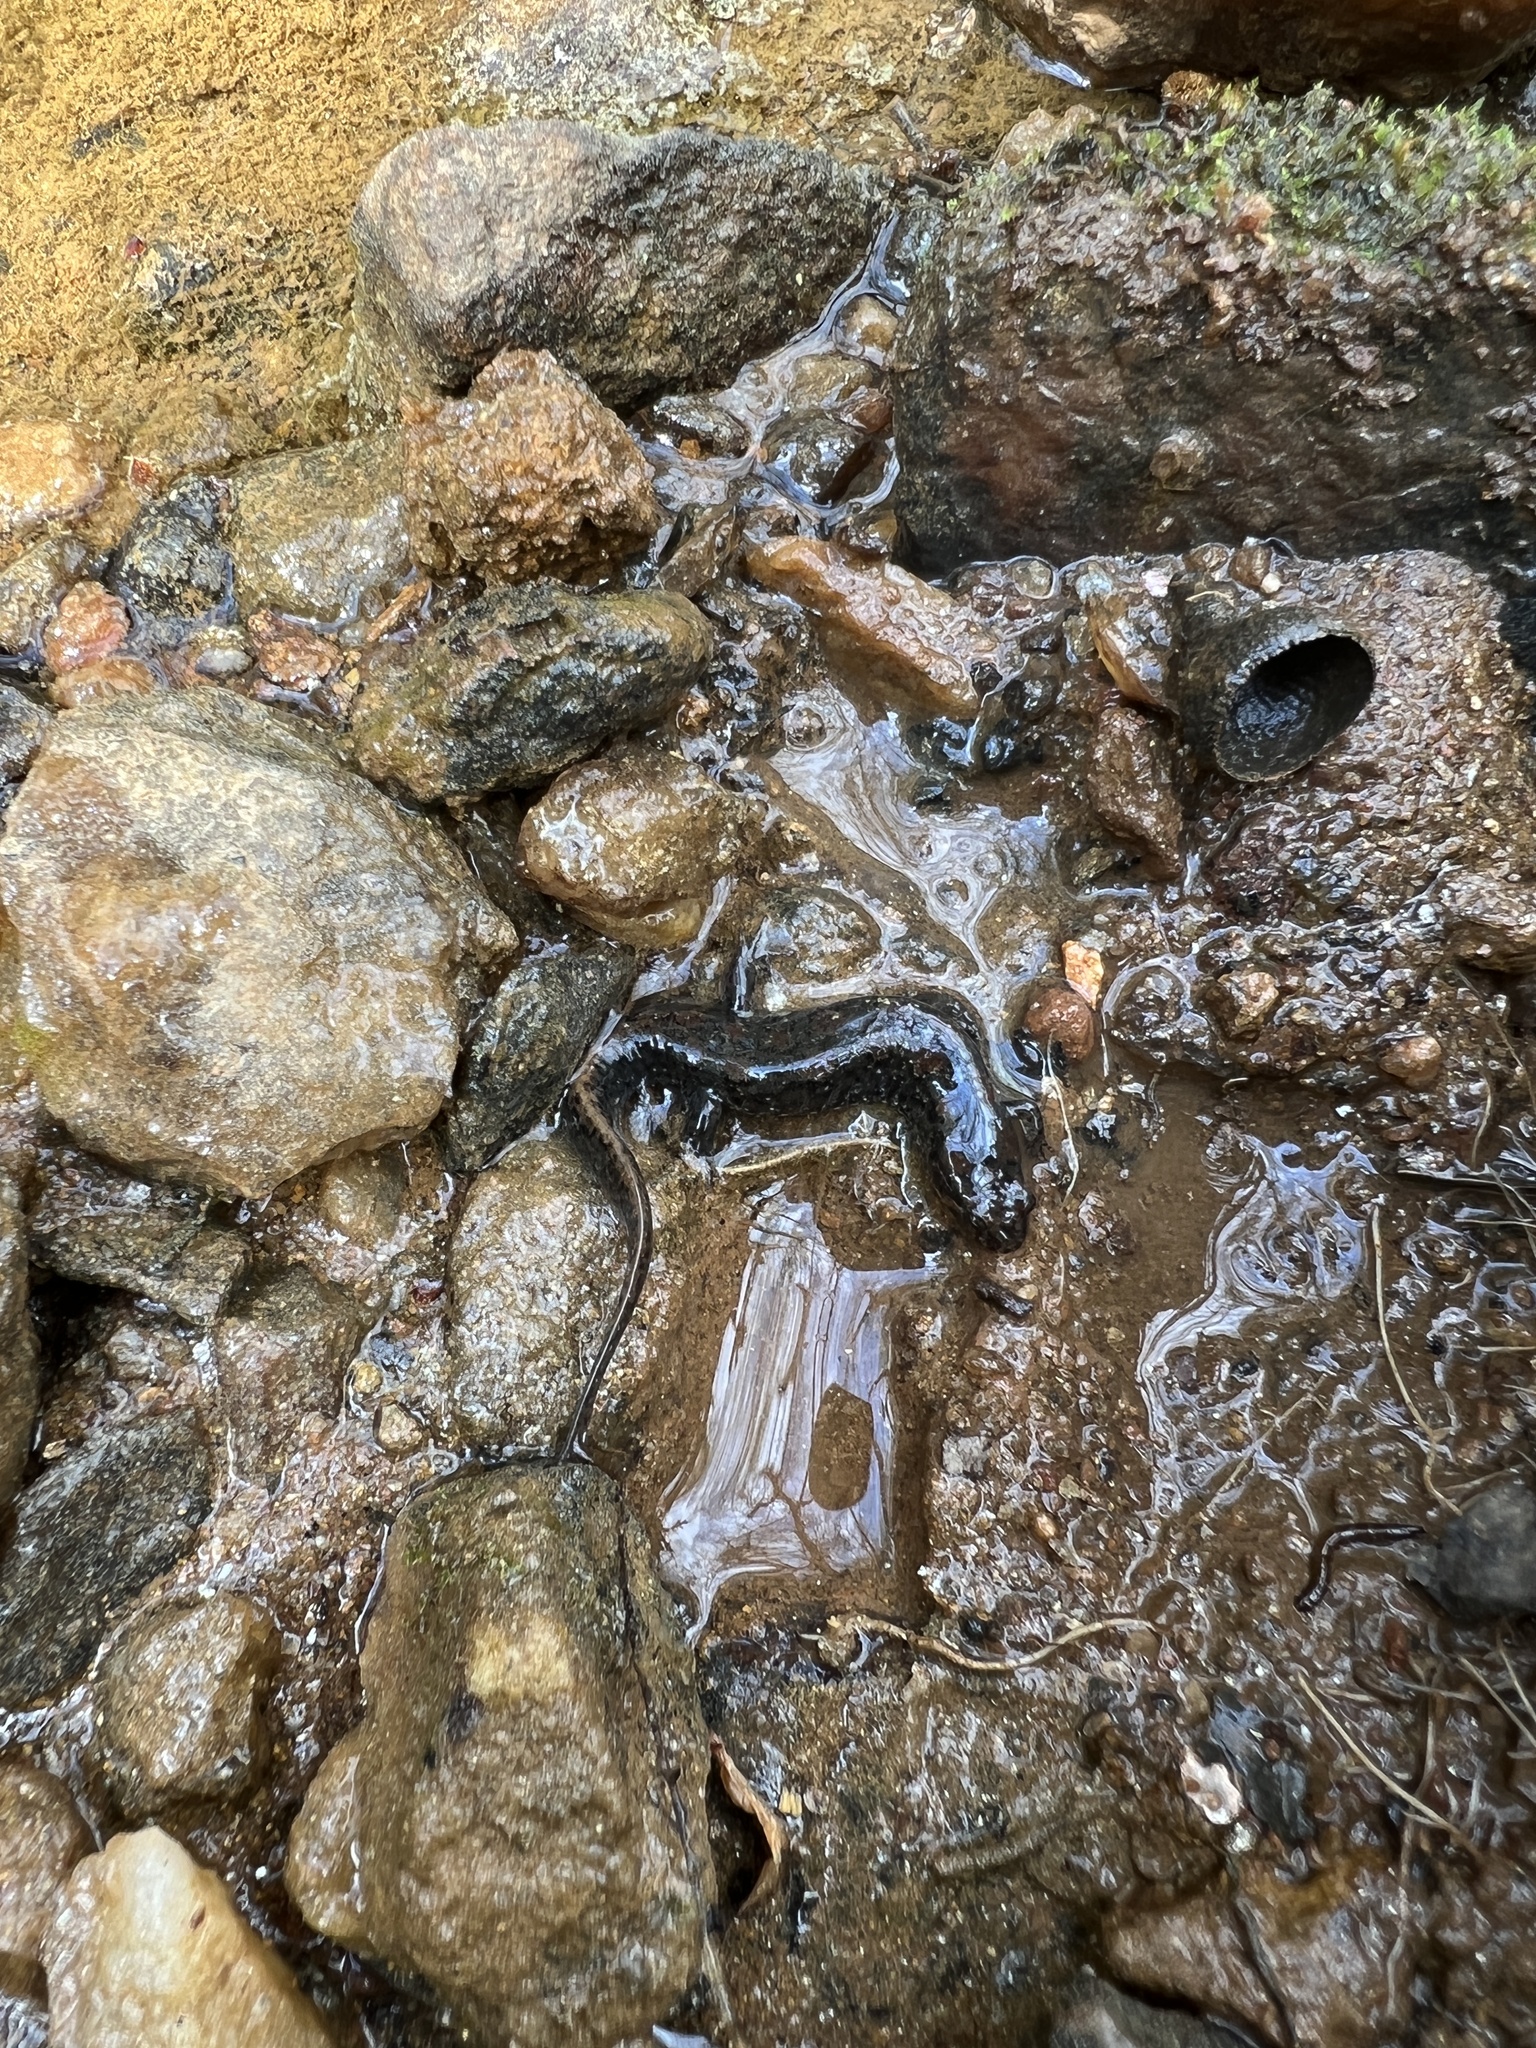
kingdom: Animalia
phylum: Chordata
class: Amphibia
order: Caudata
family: Plethodontidae
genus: Desmognathus
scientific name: Desmognathus conanti
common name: Spotted dusky salamander
